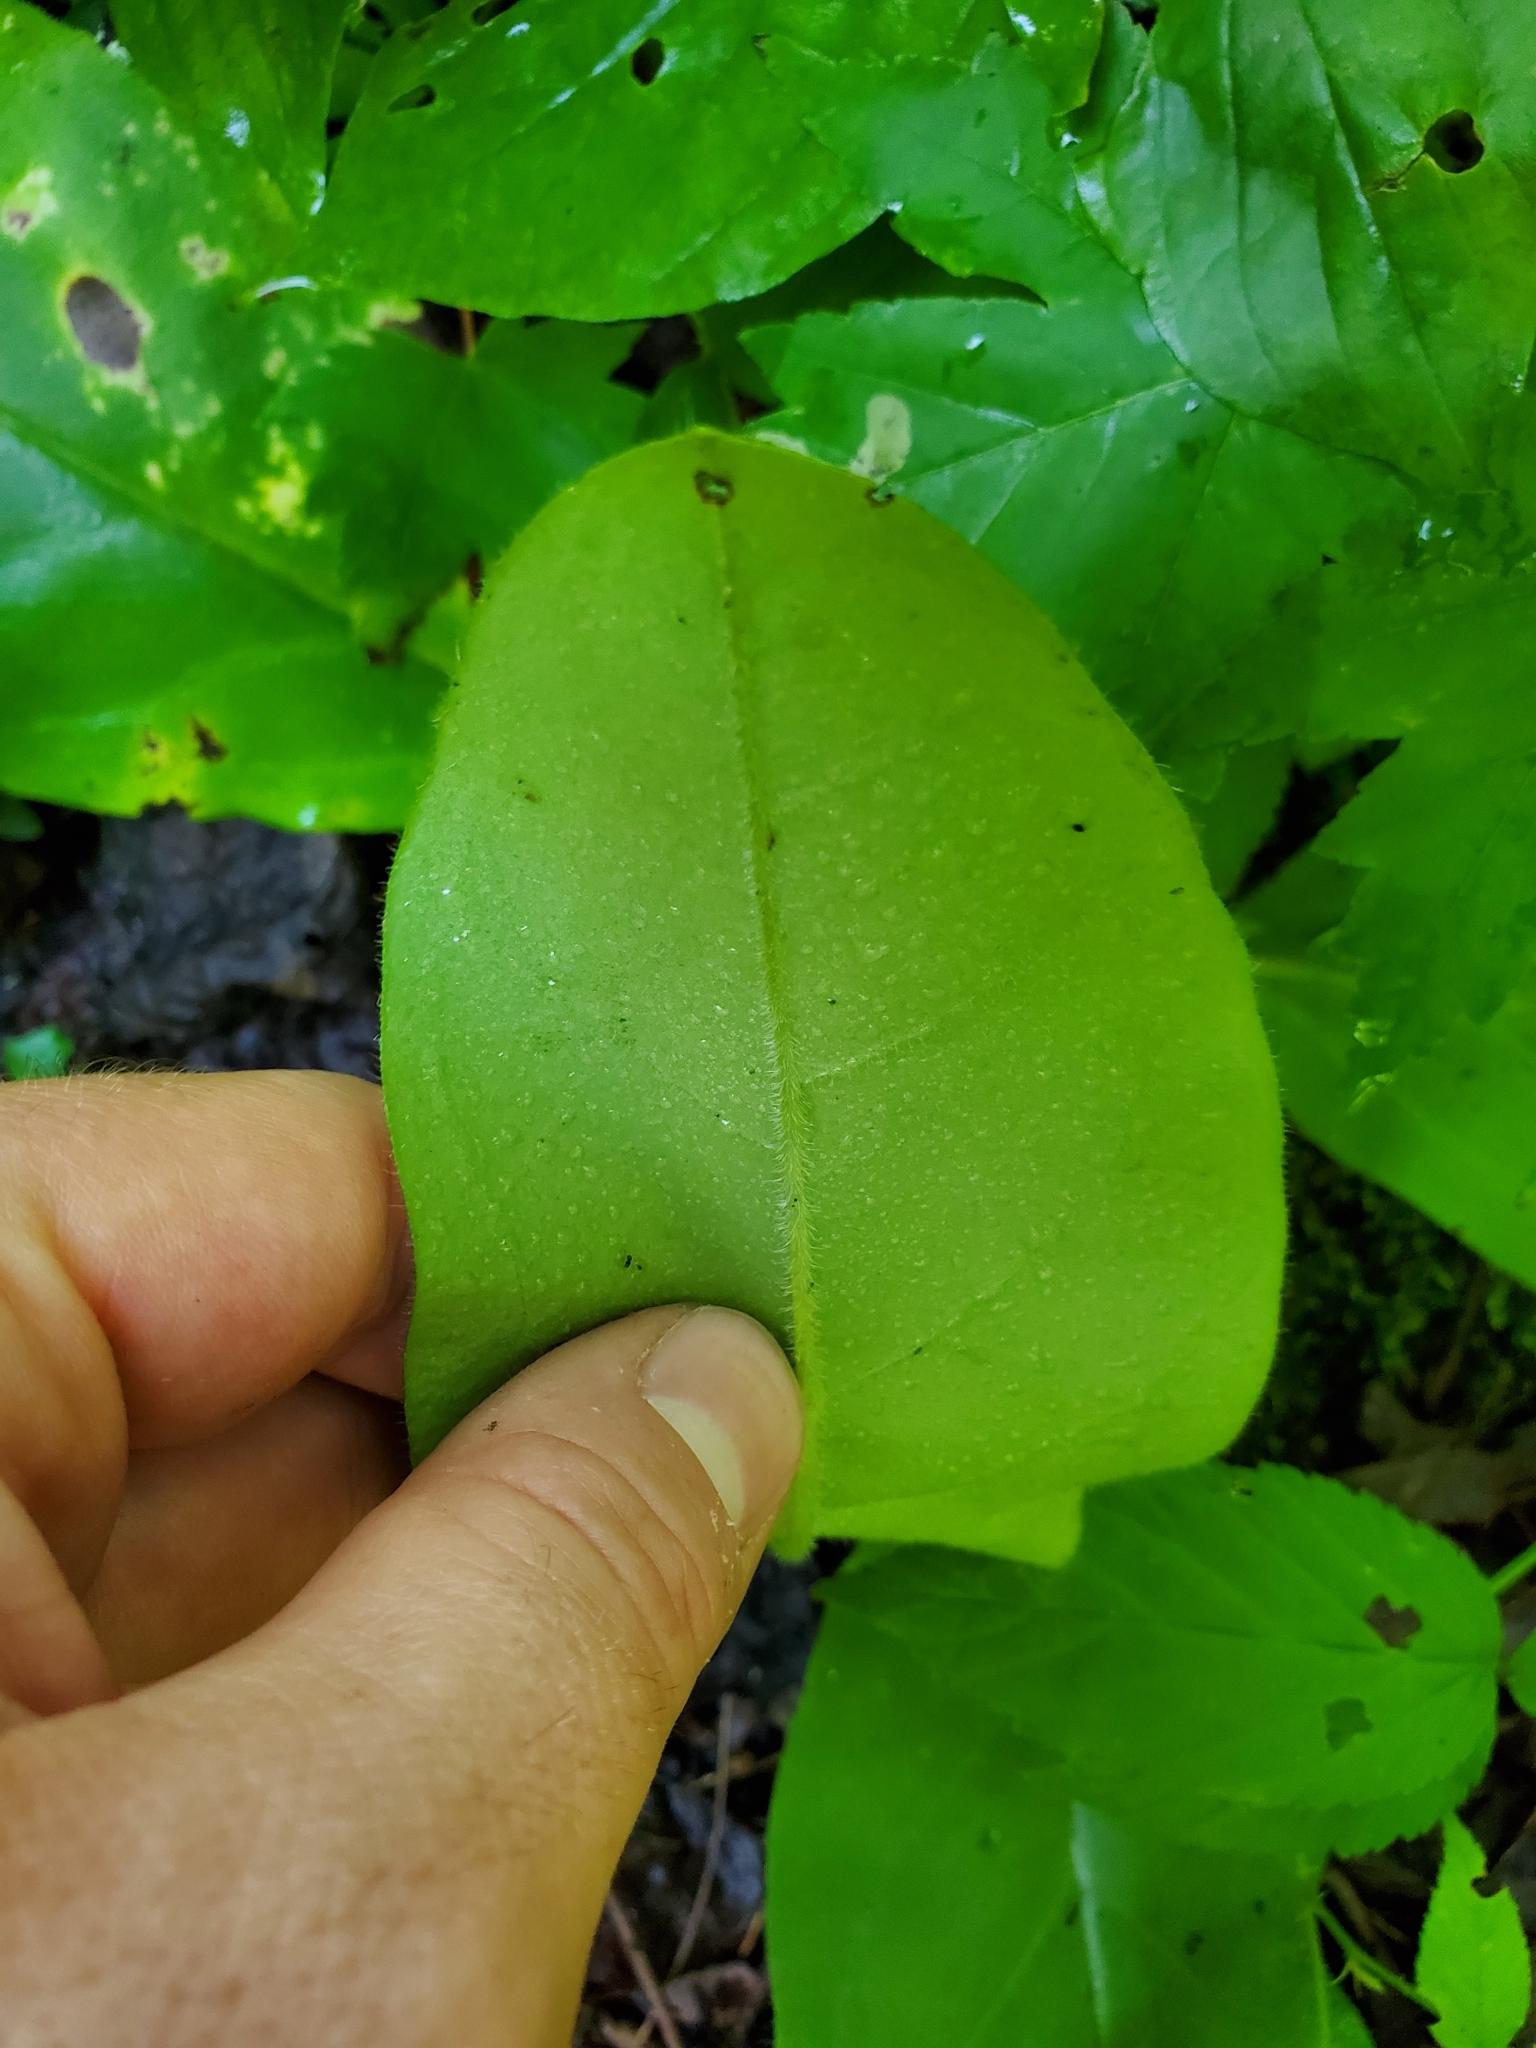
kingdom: Plantae
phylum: Tracheophyta
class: Magnoliopsida
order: Boraginales
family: Boraginaceae
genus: Andersonglossum
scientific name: Andersonglossum virginianum
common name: Wild comfrey
